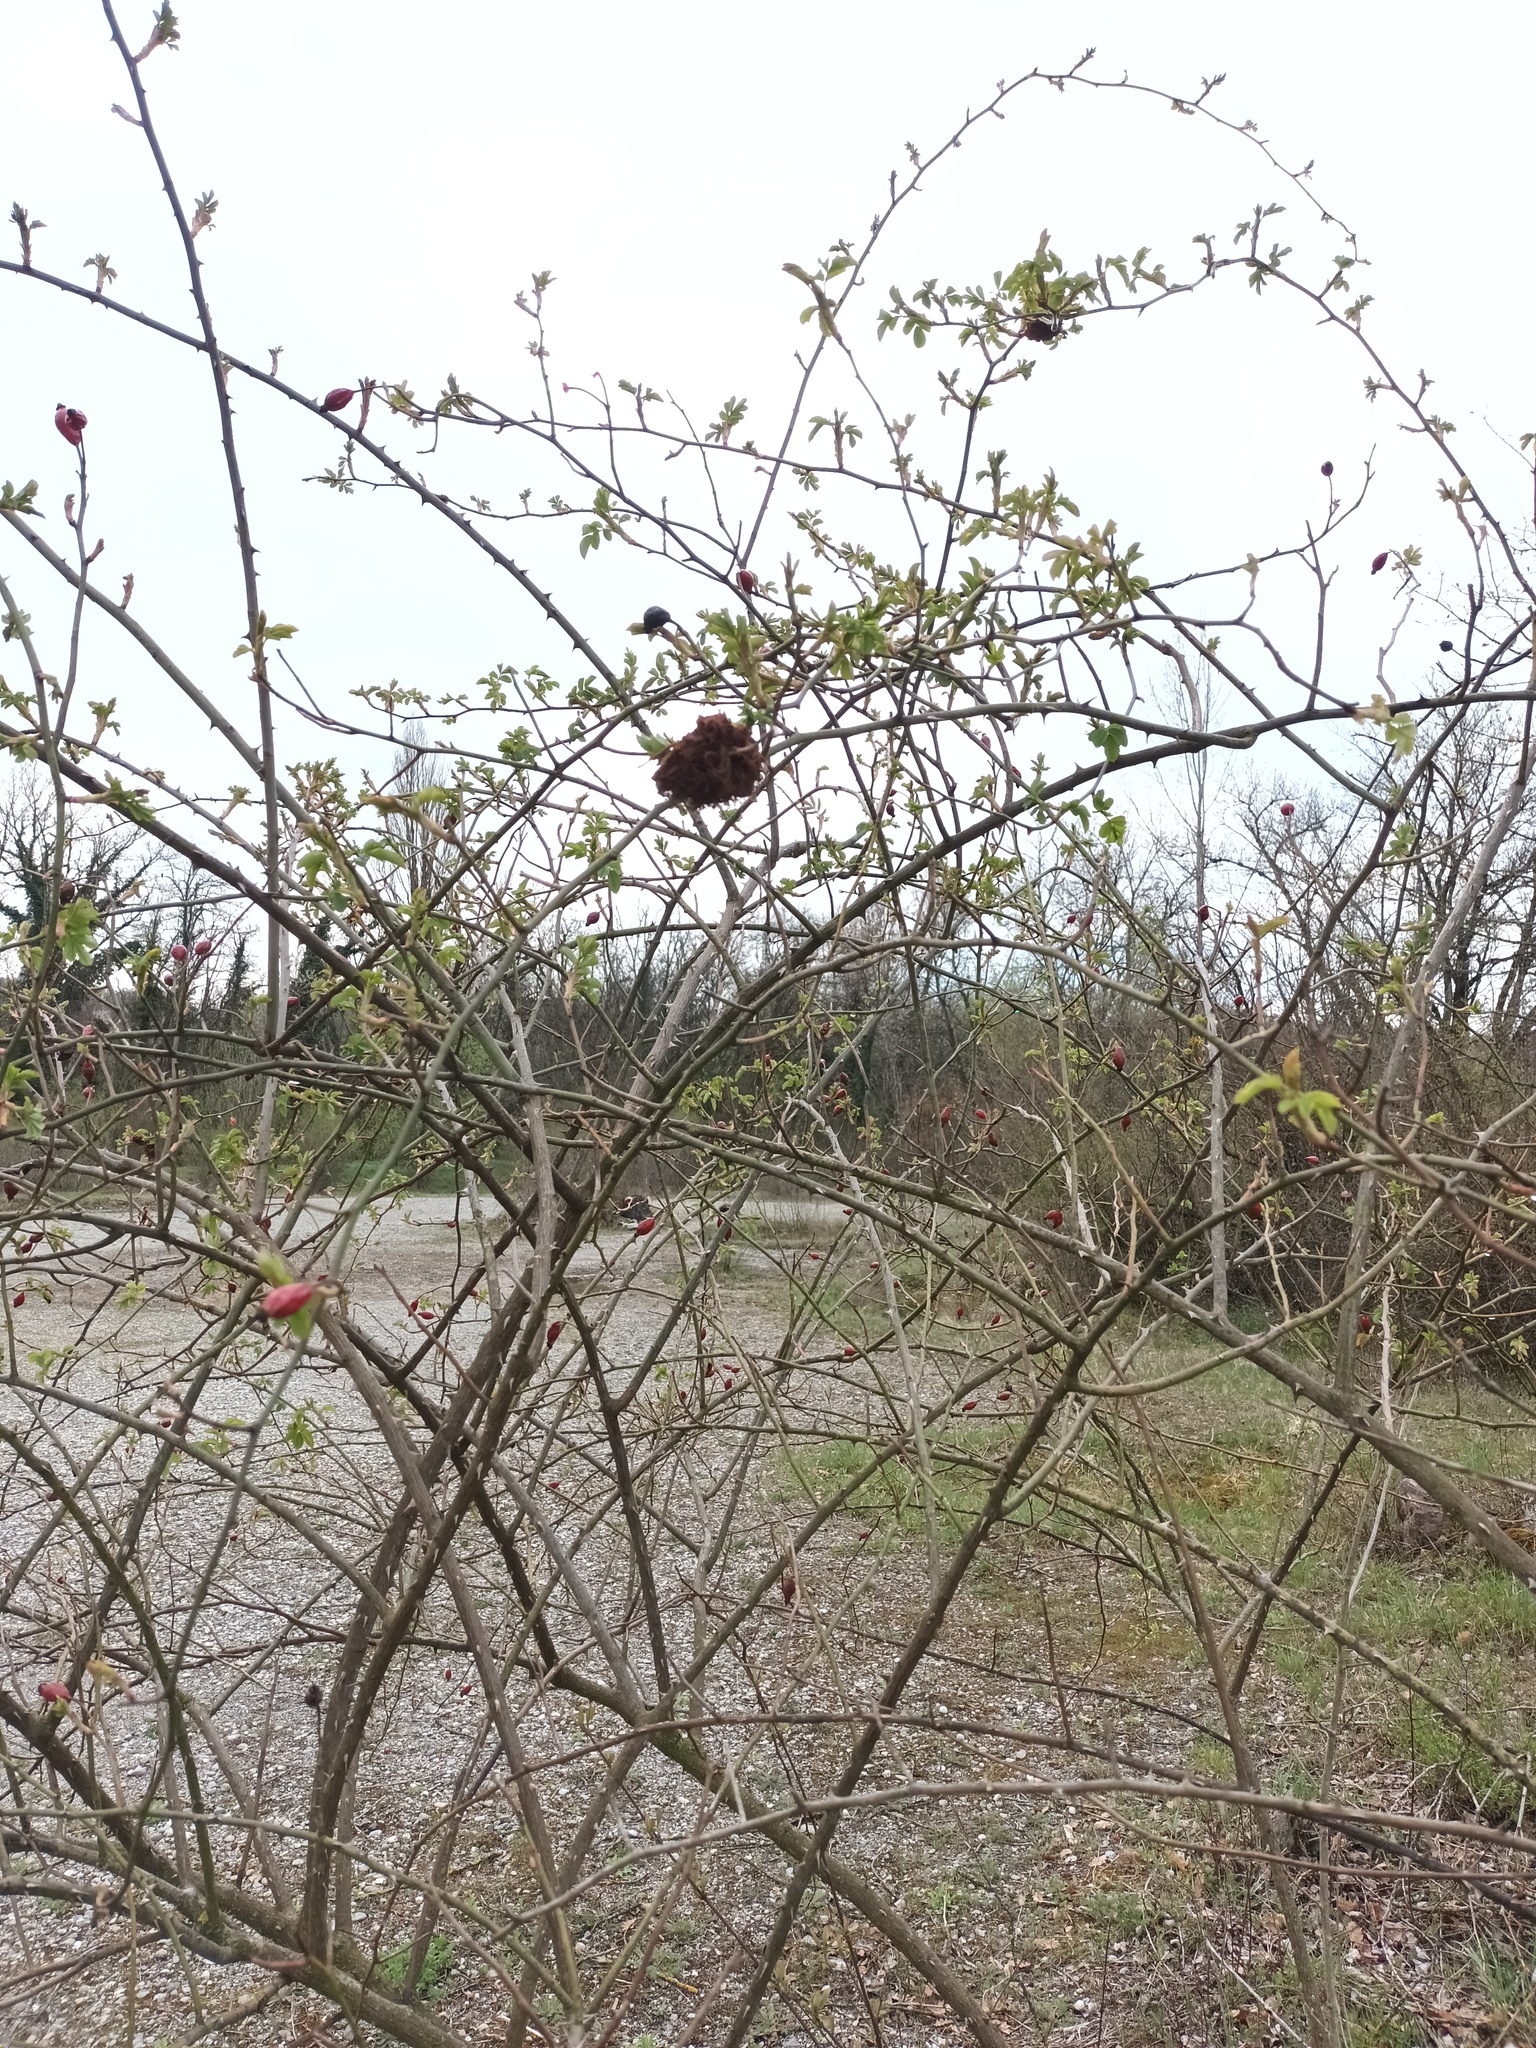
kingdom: Animalia
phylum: Arthropoda
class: Insecta
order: Hymenoptera
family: Cynipidae
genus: Diplolepis
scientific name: Diplolepis rosae
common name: Bedeguar gall
